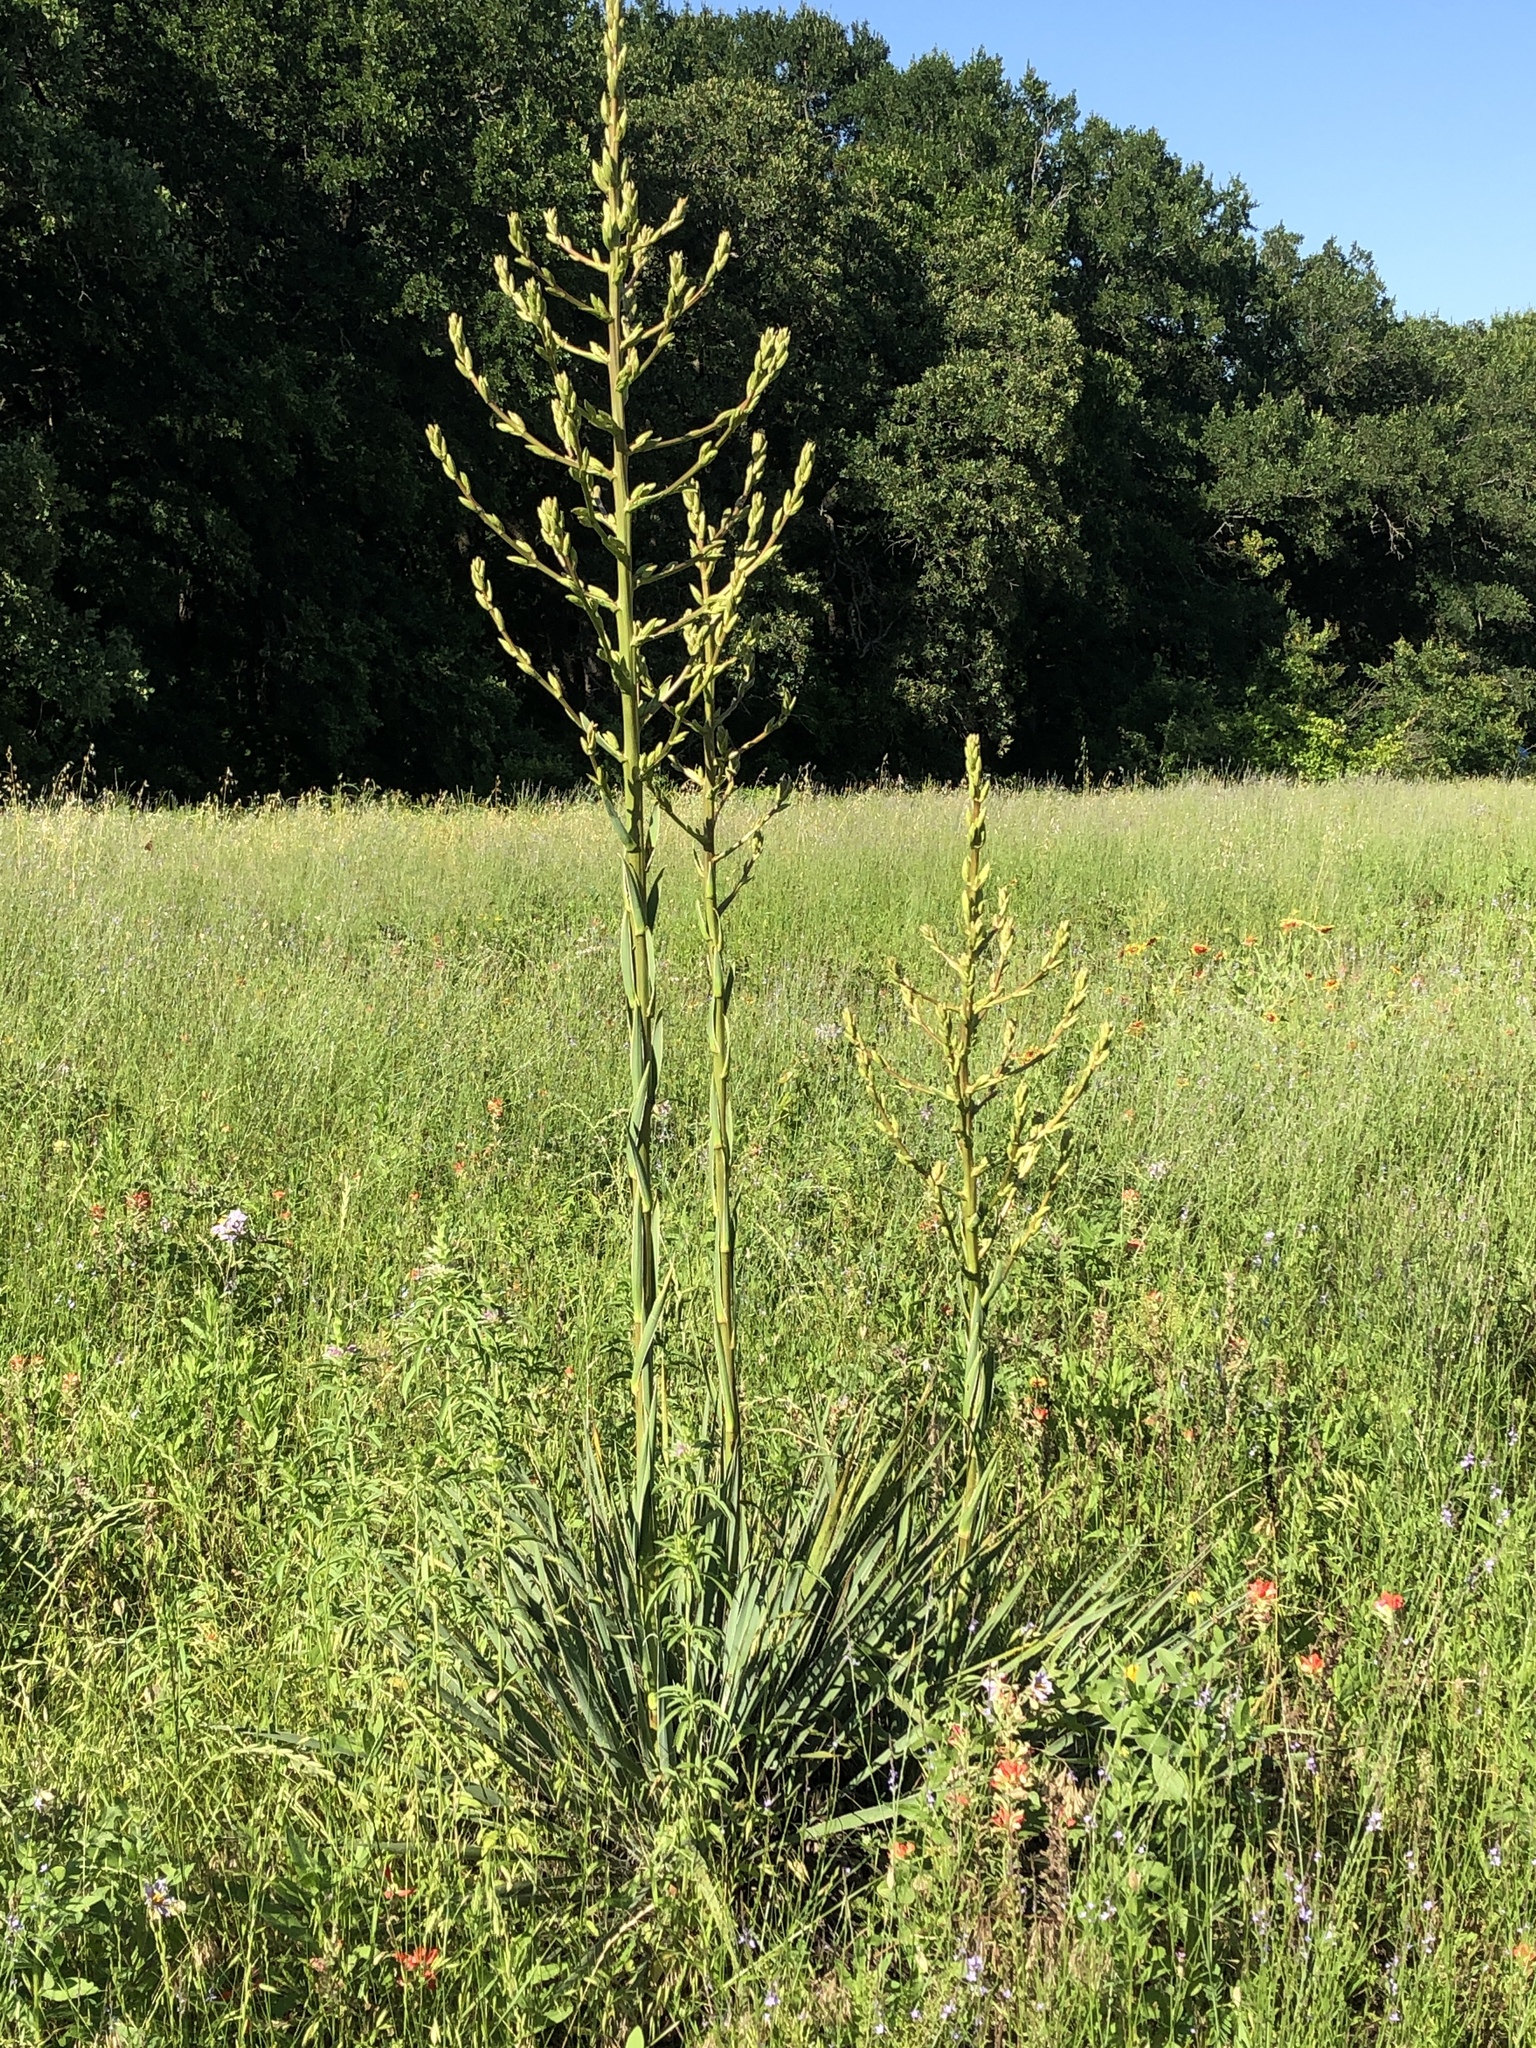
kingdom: Plantae
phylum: Tracheophyta
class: Liliopsida
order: Asparagales
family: Asparagaceae
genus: Yucca
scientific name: Yucca necopina
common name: Glen rose yucca
